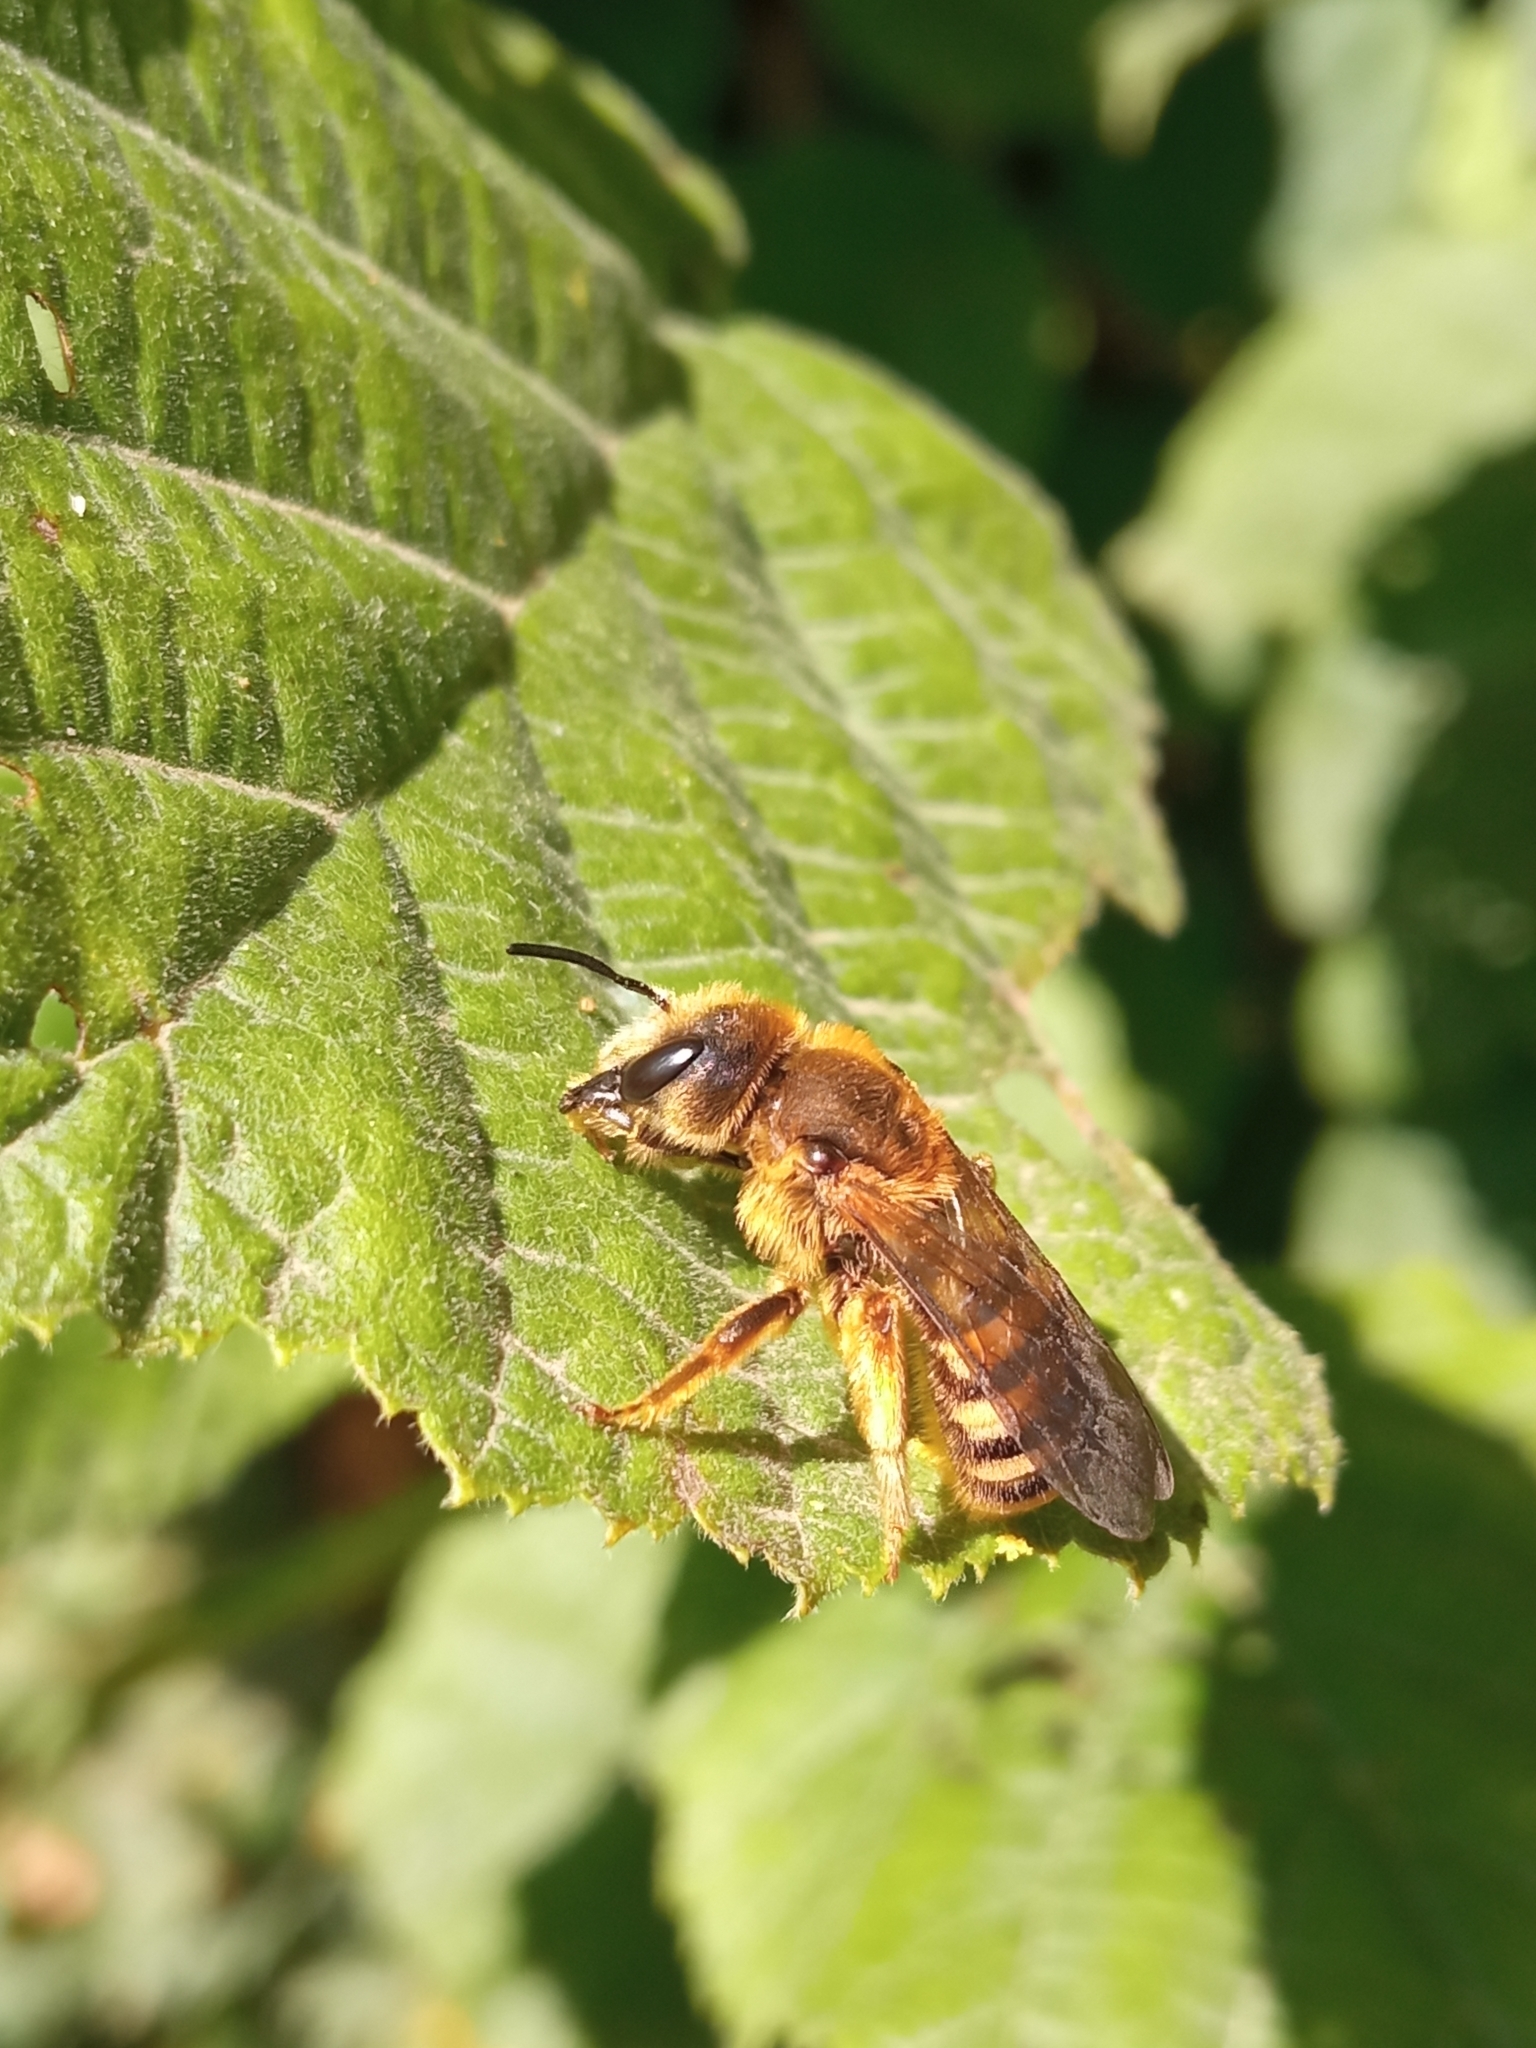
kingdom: Animalia
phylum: Arthropoda
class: Insecta
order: Hymenoptera
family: Halictidae
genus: Halictus
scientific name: Halictus scabiosae
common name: Great banded furrow bee
